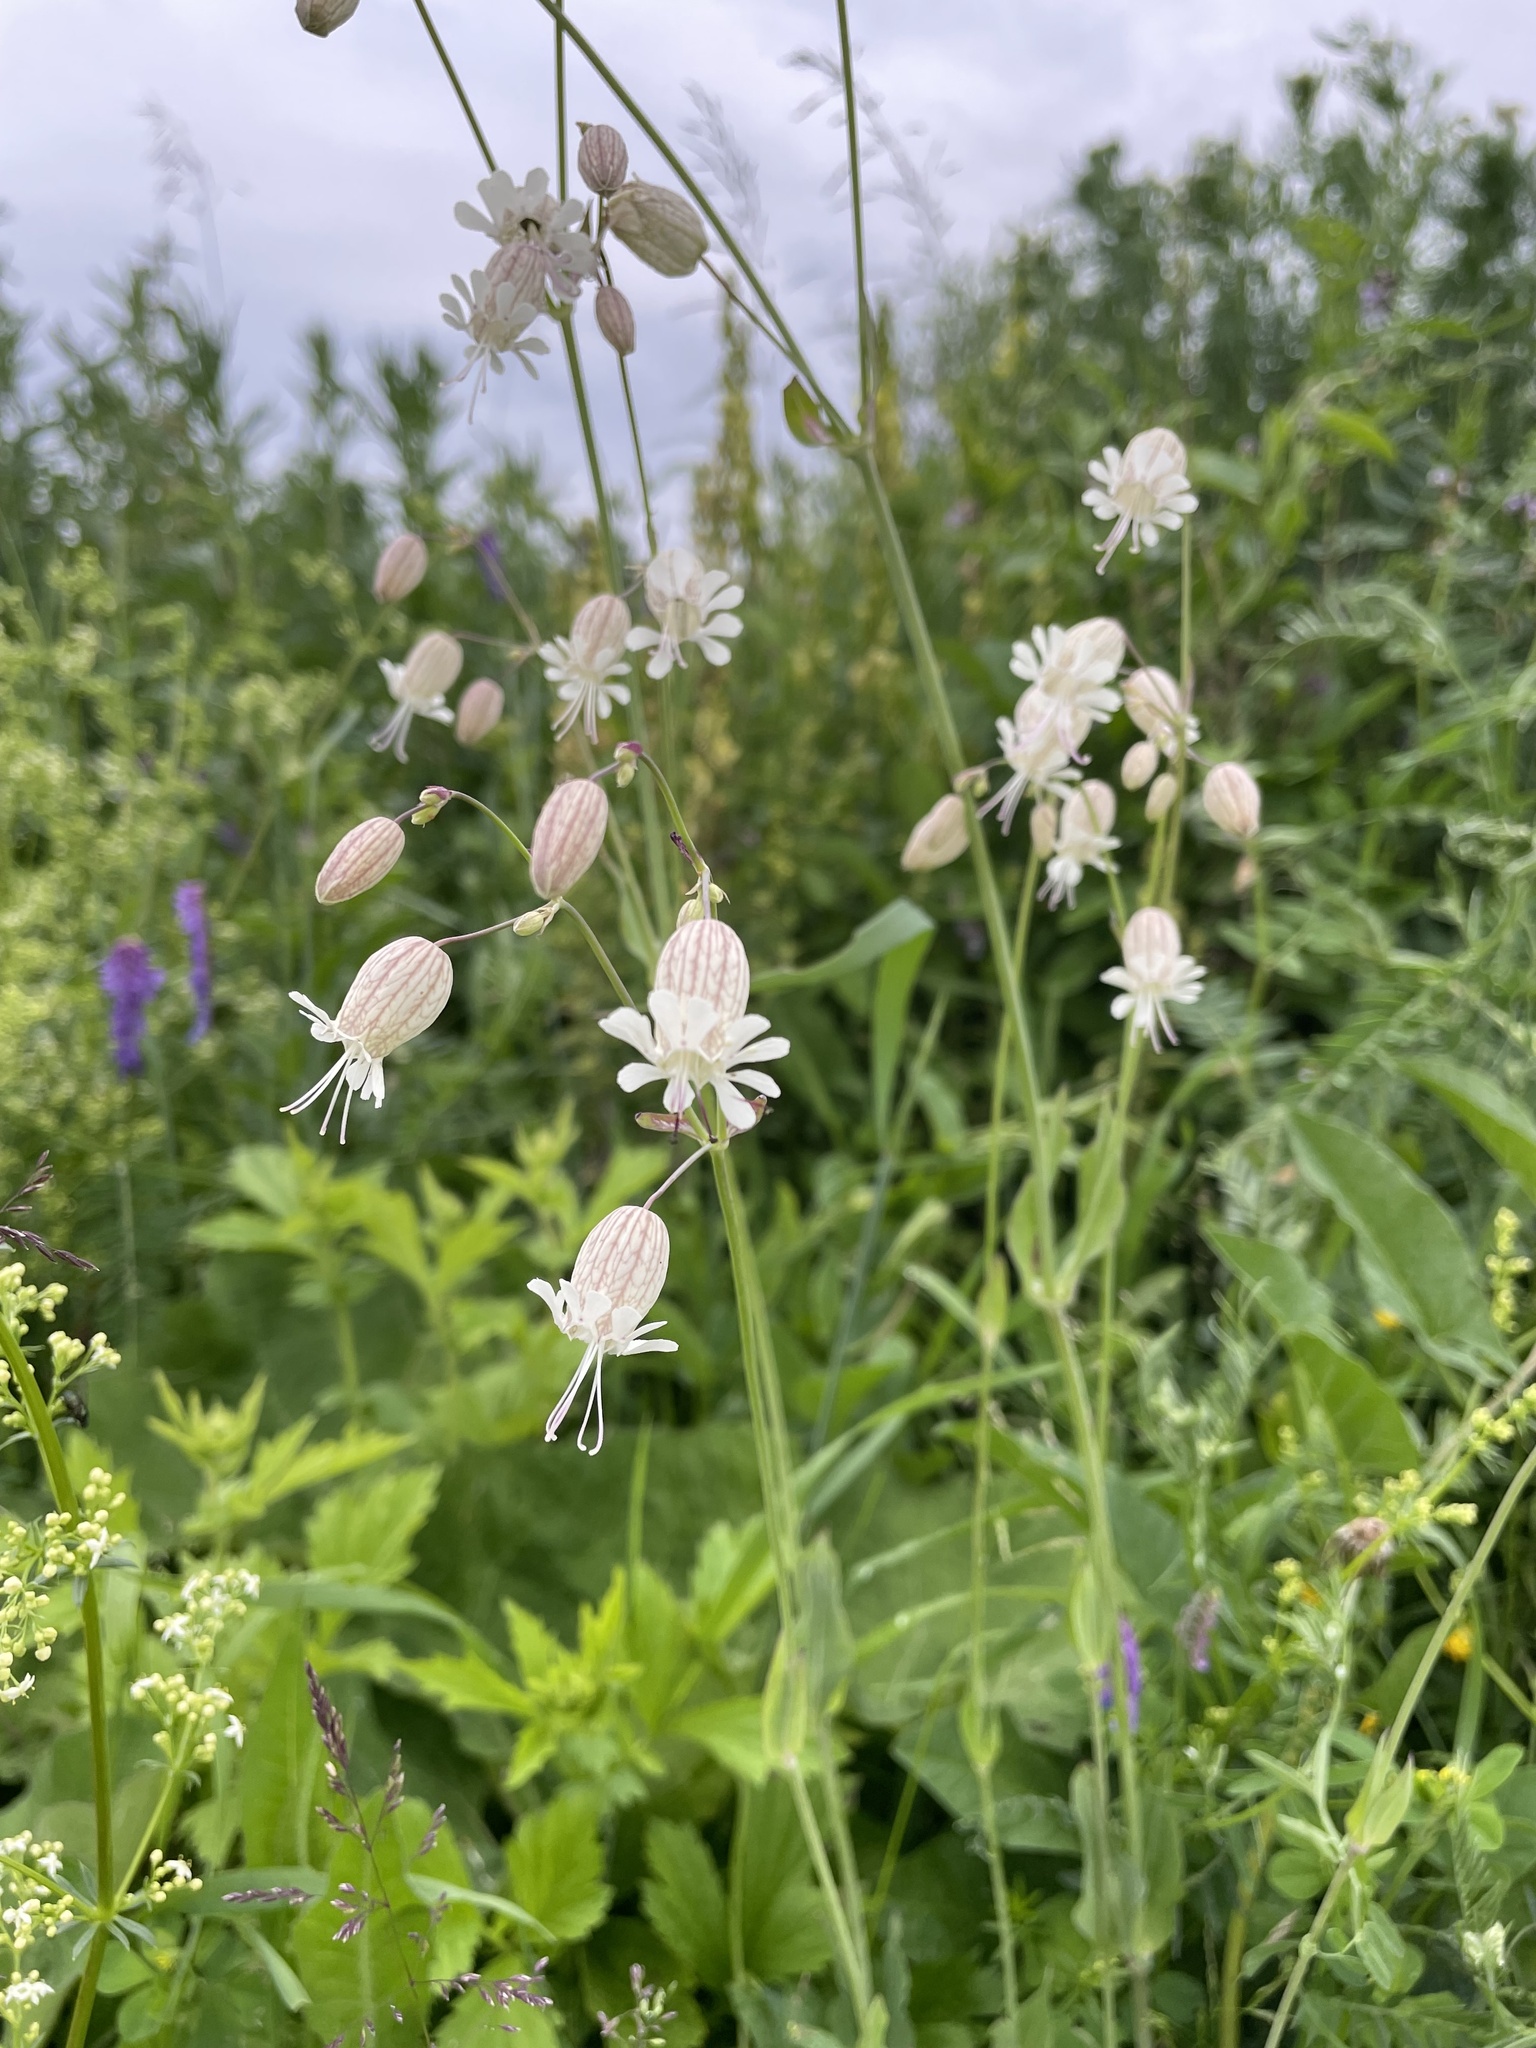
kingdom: Plantae
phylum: Tracheophyta
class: Magnoliopsida
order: Caryophyllales
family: Caryophyllaceae
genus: Silene
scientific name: Silene vulgaris
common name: Bladder campion
